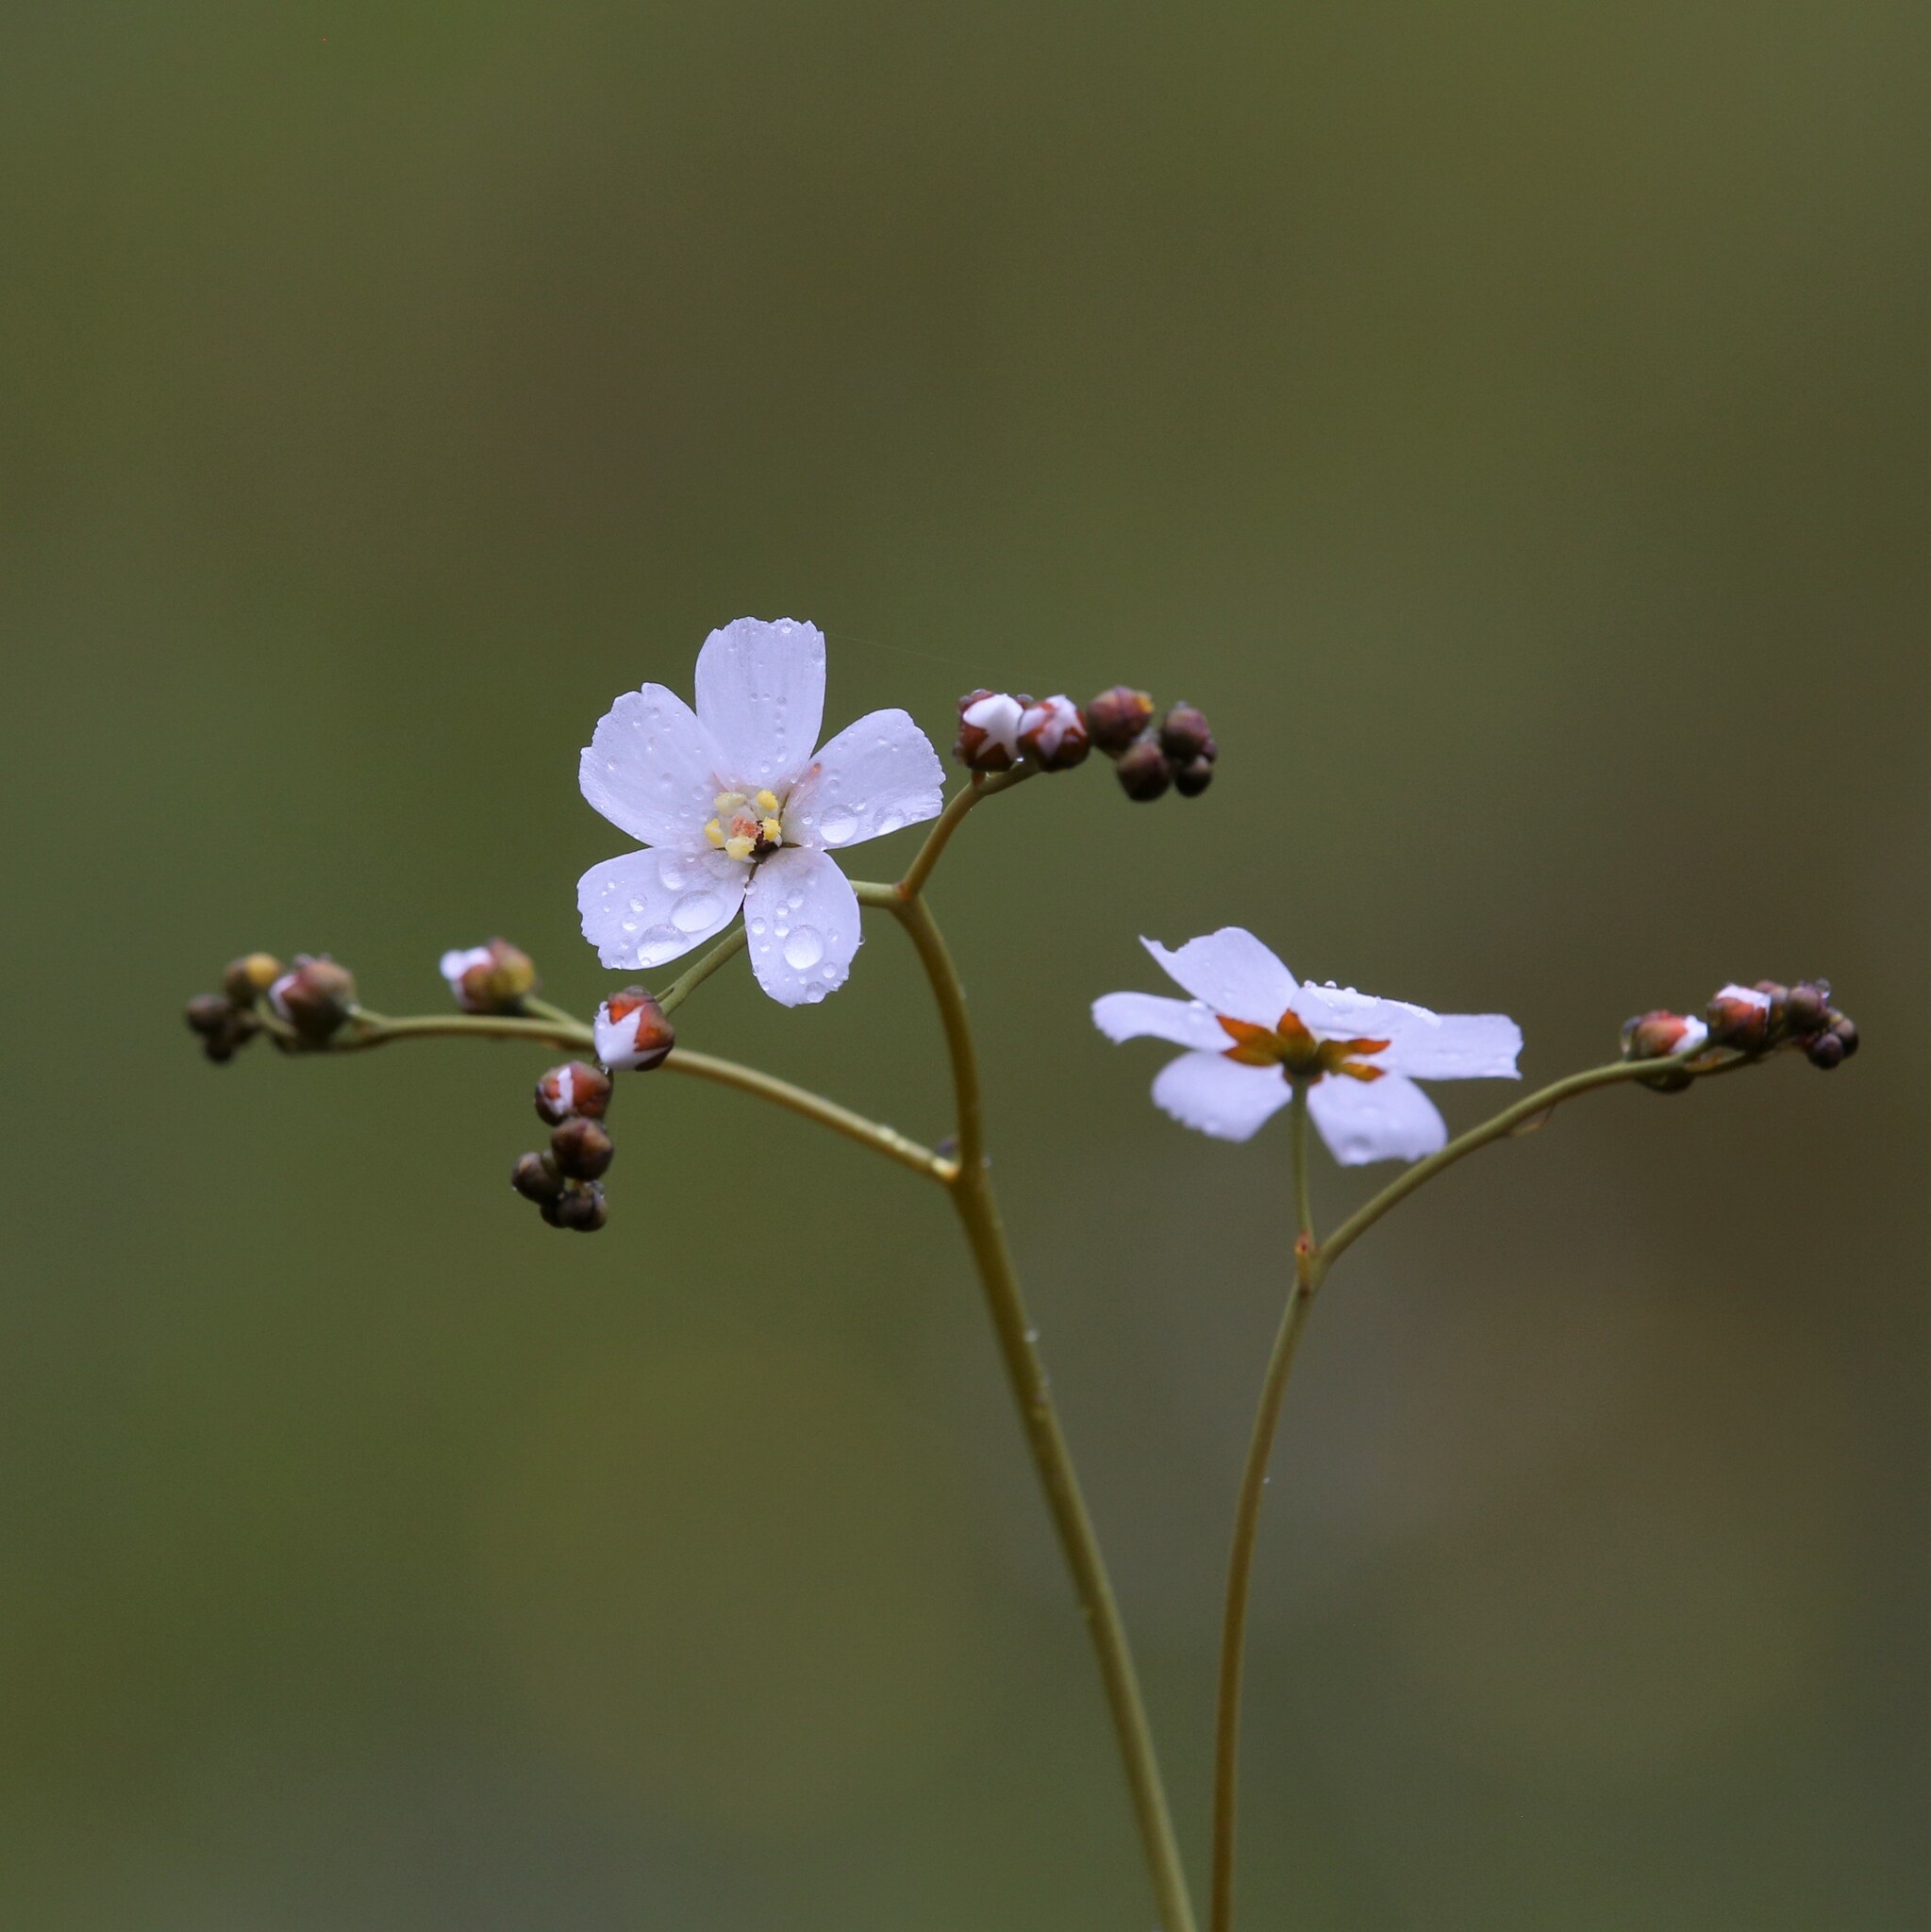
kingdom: Plantae
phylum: Tracheophyta
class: Magnoliopsida
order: Caryophyllales
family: Droseraceae
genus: Drosera
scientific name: Drosera gigantea
